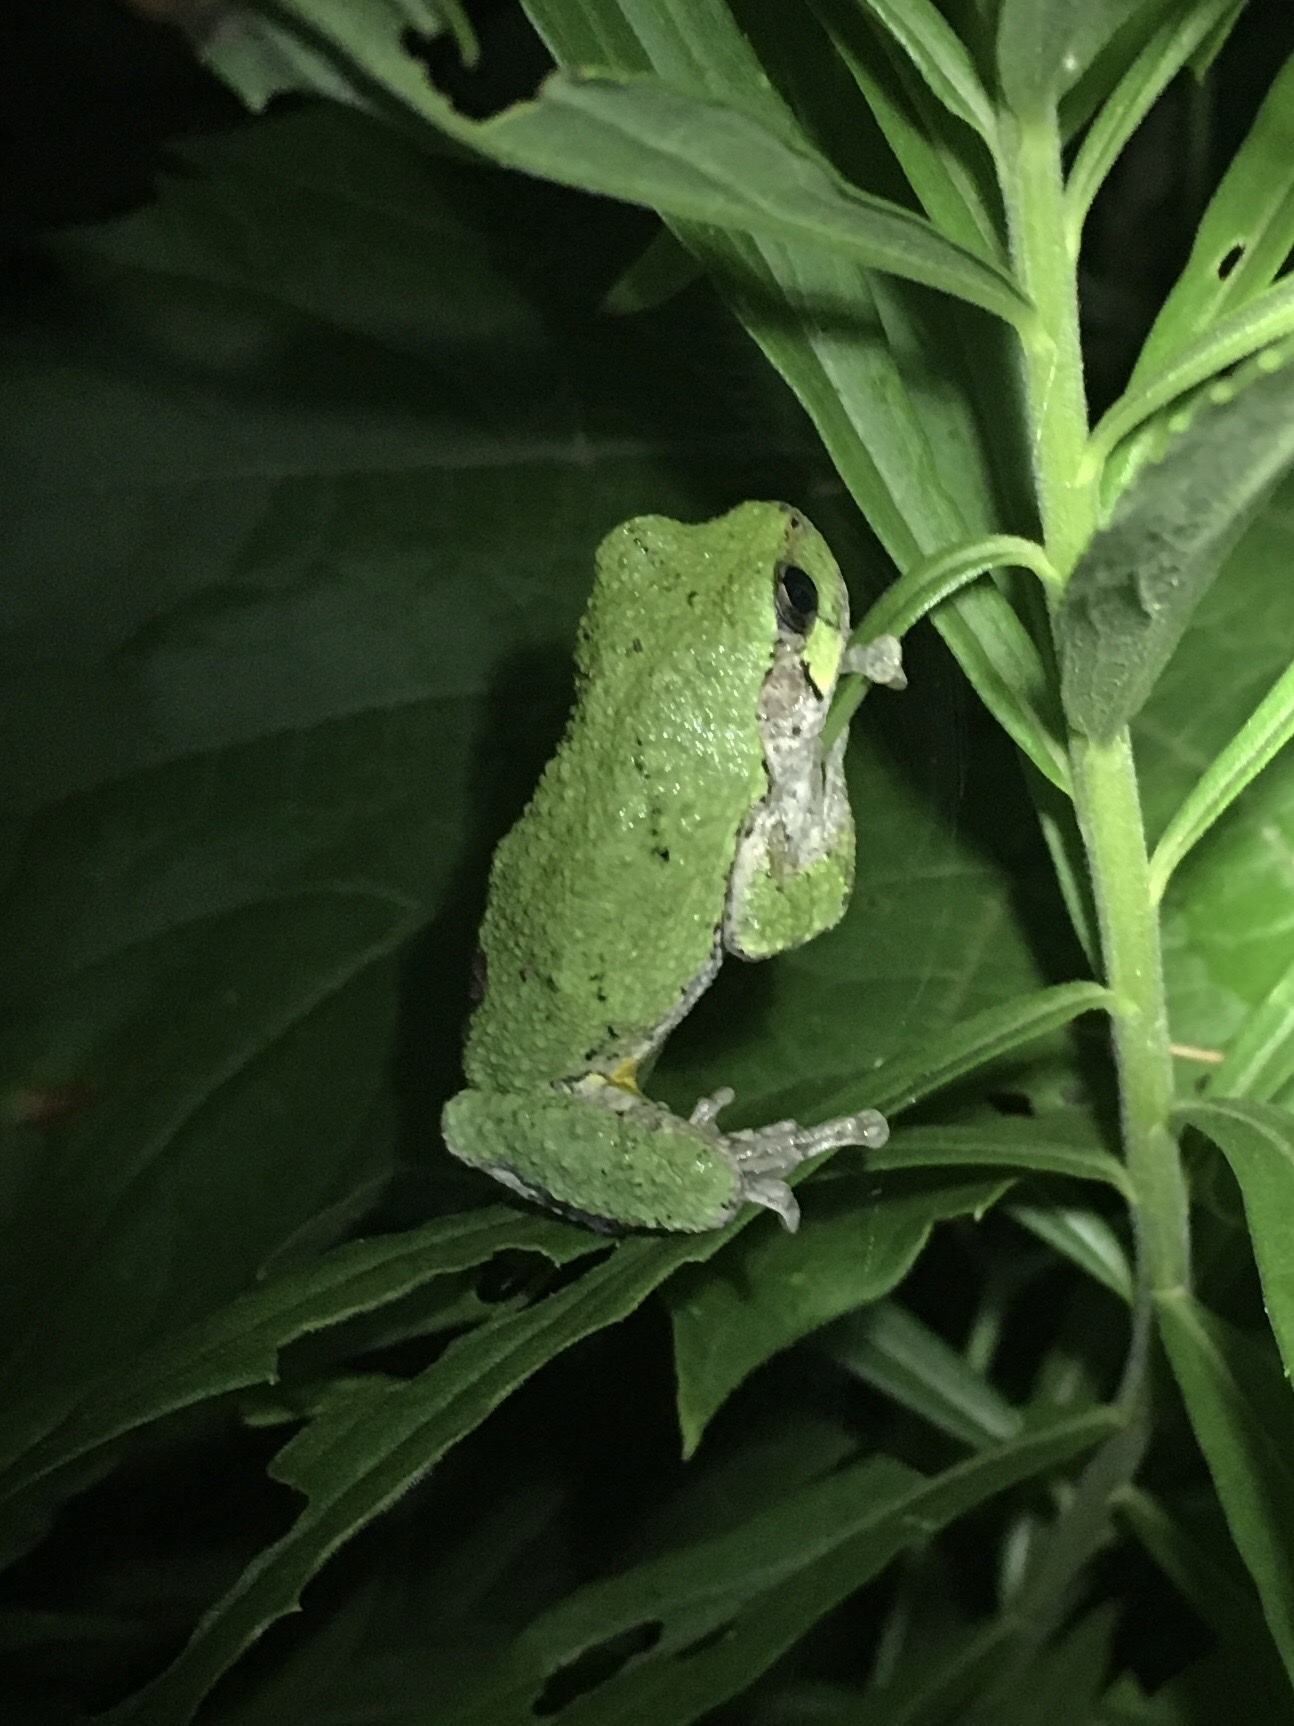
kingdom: Animalia
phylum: Chordata
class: Amphibia
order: Anura
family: Hylidae
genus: Dryophytes
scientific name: Dryophytes versicolor
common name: Gray treefrog
